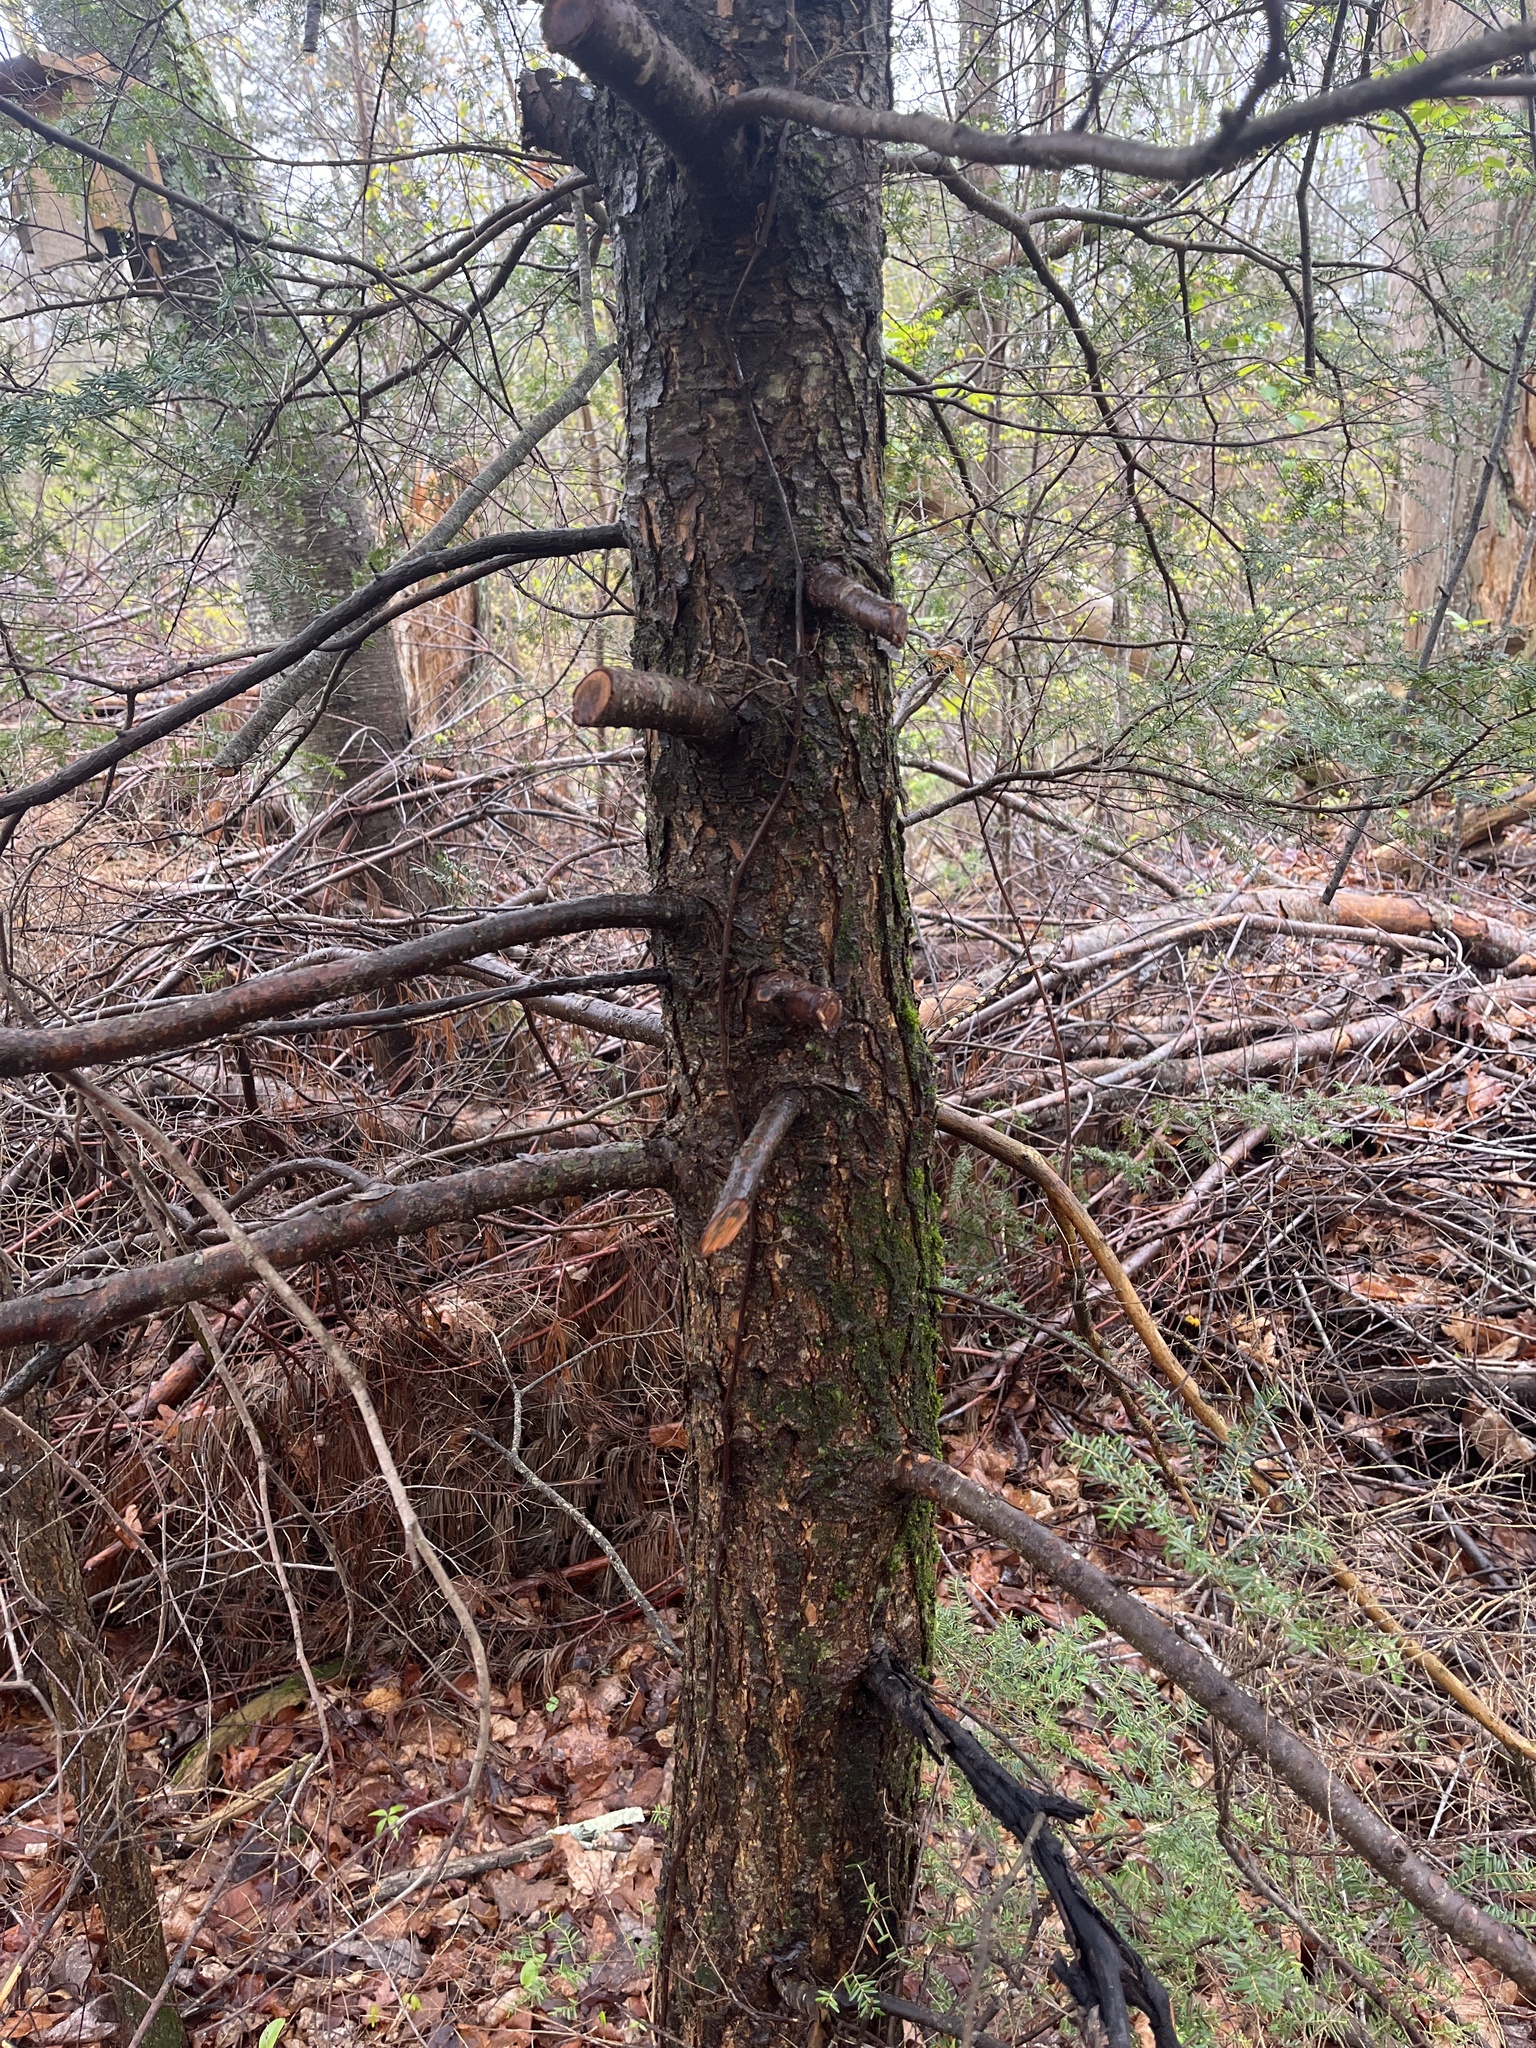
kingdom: Plantae
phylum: Tracheophyta
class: Pinopsida
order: Pinales
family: Pinaceae
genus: Tsuga
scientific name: Tsuga canadensis
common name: Eastern hemlock
